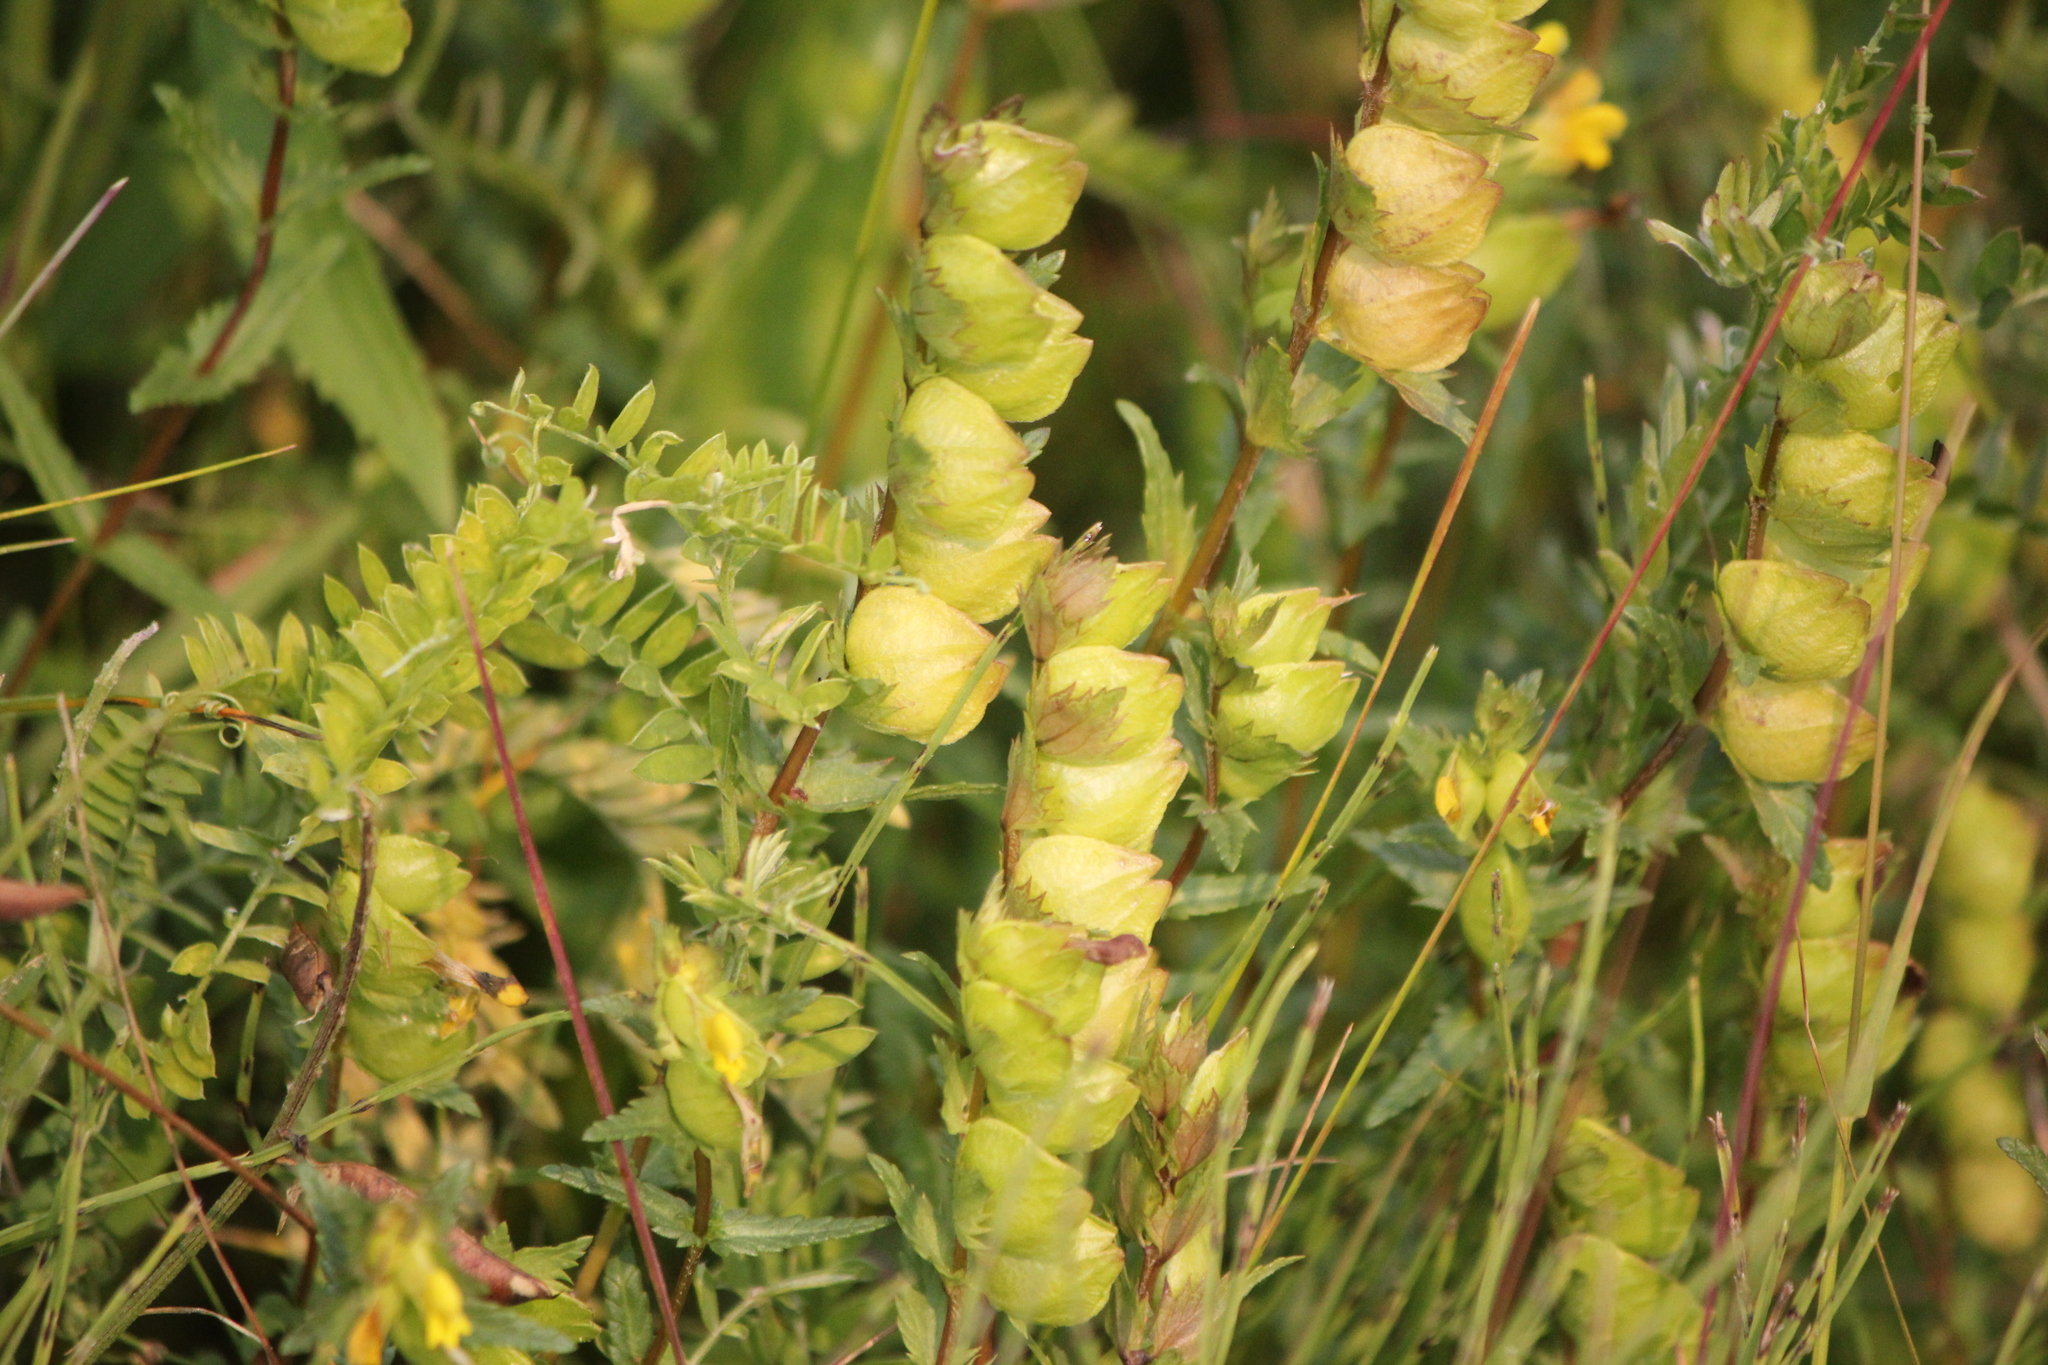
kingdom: Plantae
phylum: Tracheophyta
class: Magnoliopsida
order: Lamiales
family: Orobanchaceae
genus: Rhinanthus
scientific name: Rhinanthus minor
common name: Yellow-rattle
